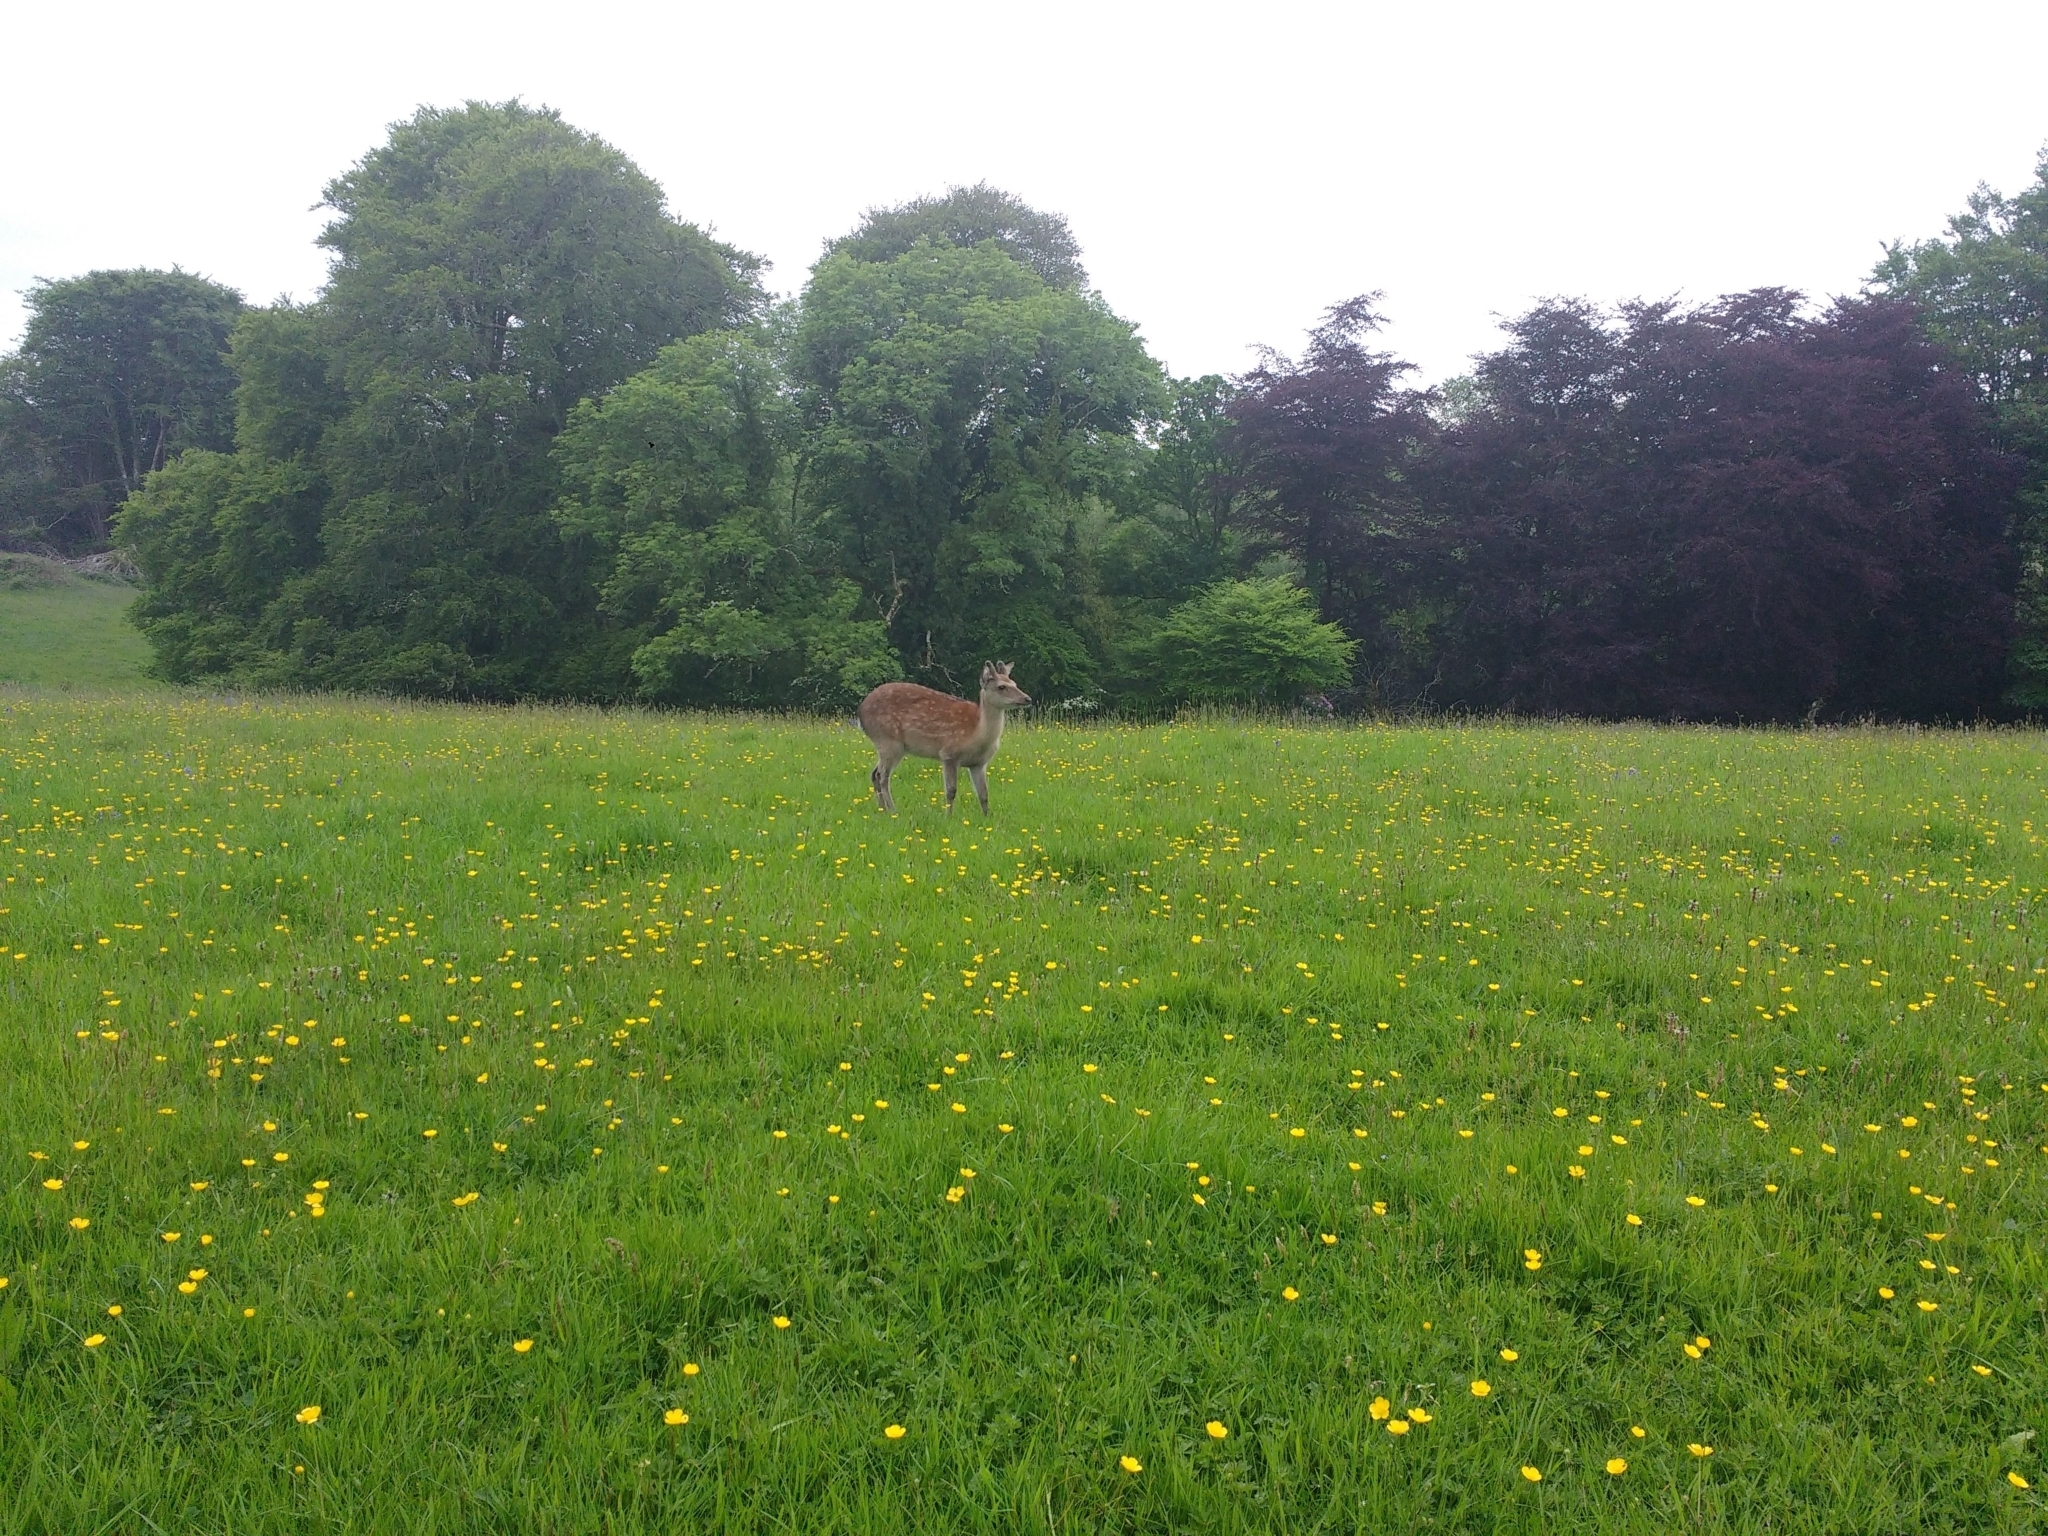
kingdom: Animalia
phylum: Chordata
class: Mammalia
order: Artiodactyla
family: Cervidae
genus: Cervus
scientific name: Cervus nippon
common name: Sika deer
